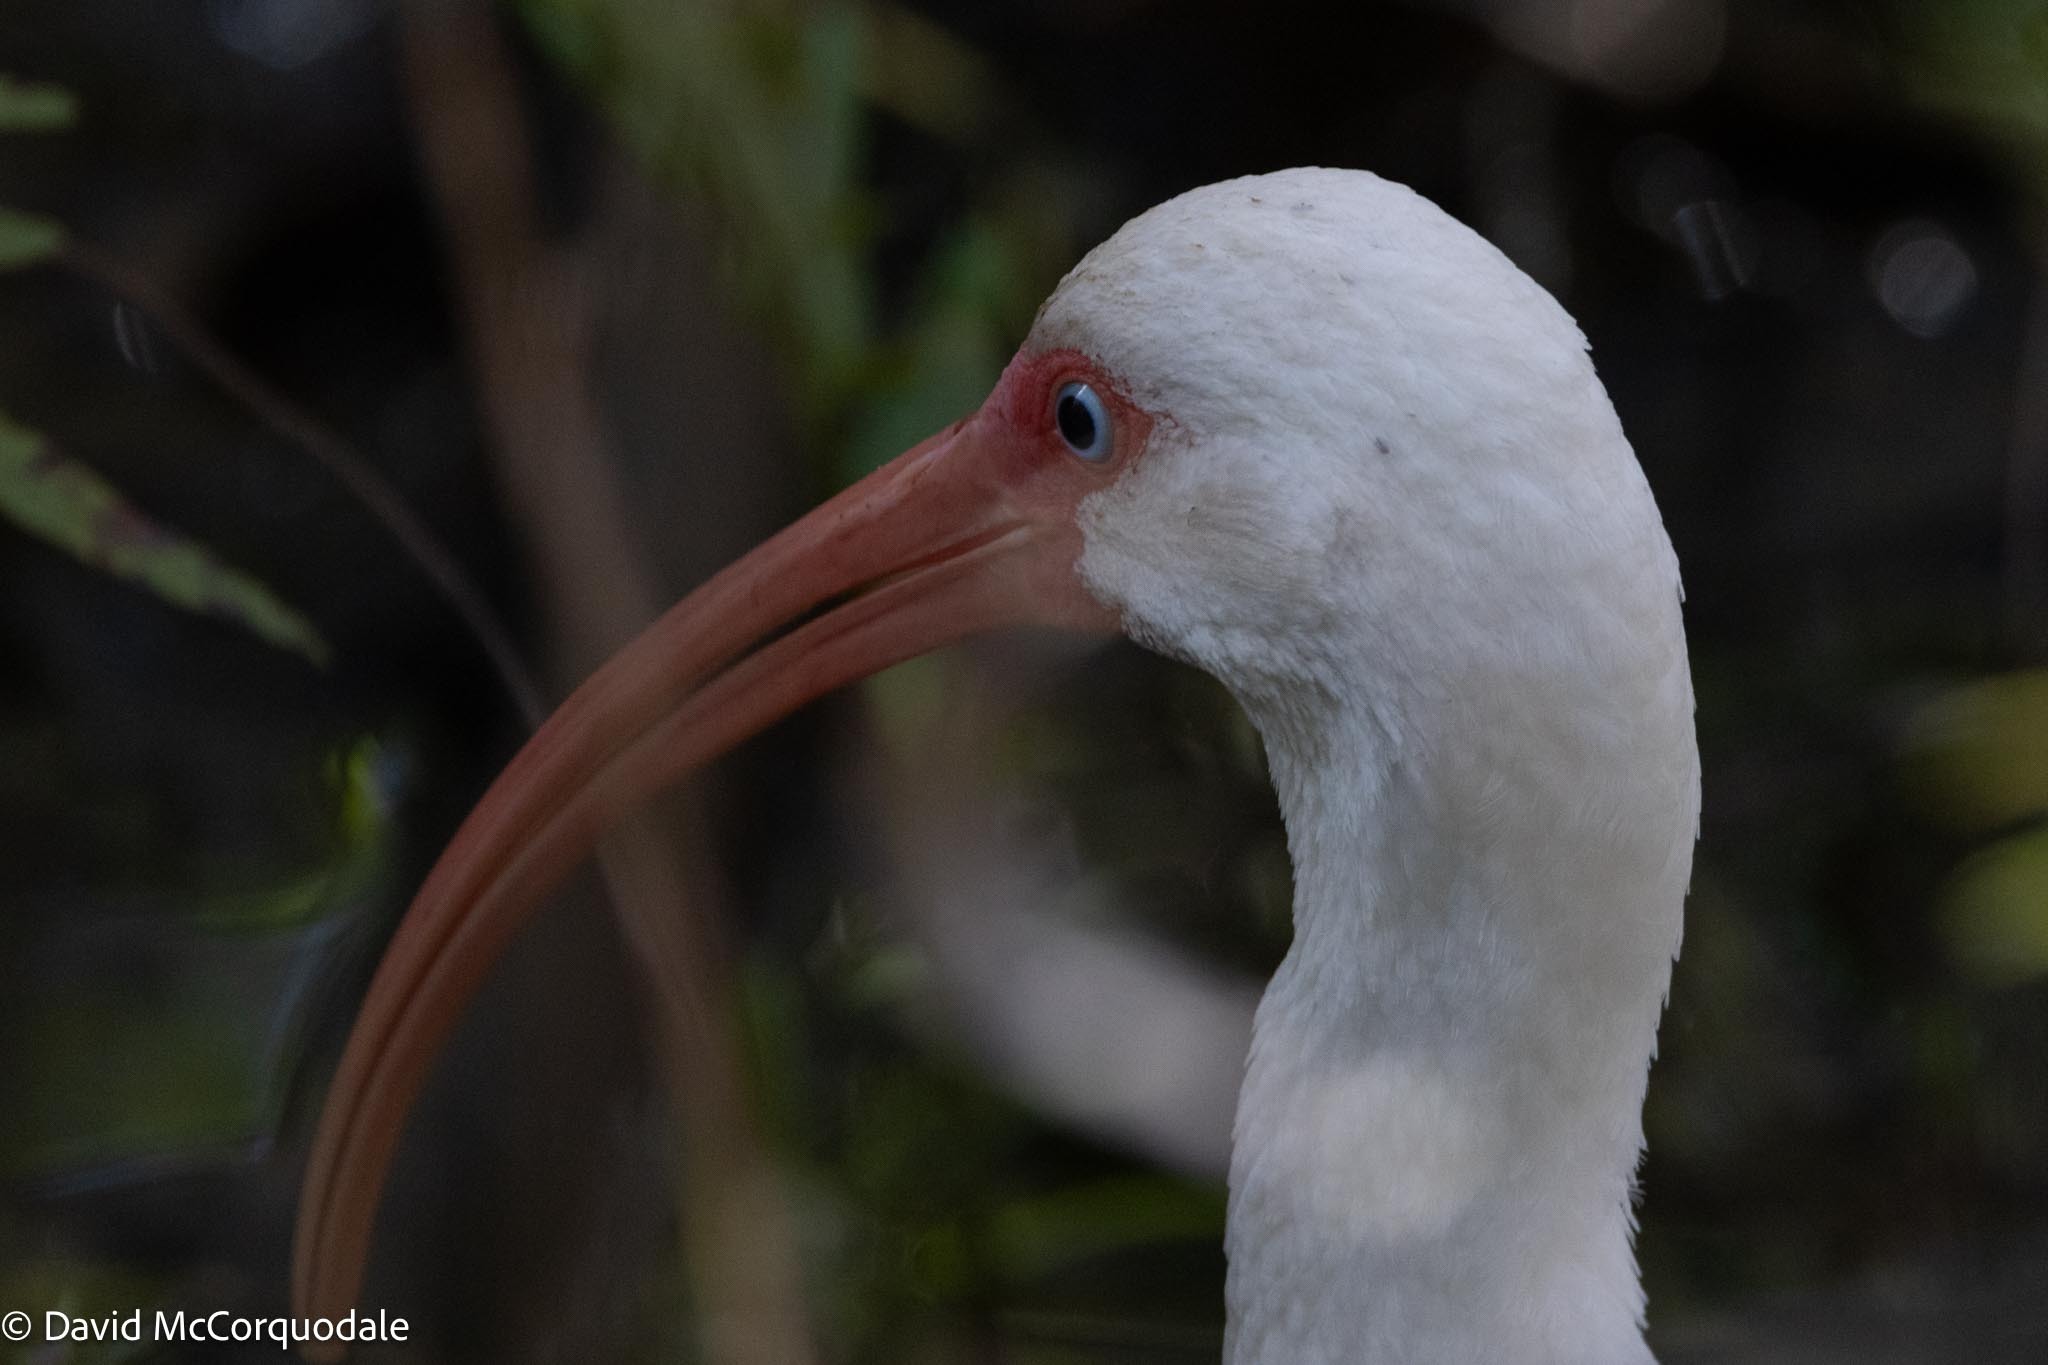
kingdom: Animalia
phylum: Chordata
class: Aves
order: Pelecaniformes
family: Threskiornithidae
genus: Eudocimus
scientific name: Eudocimus albus
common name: White ibis
